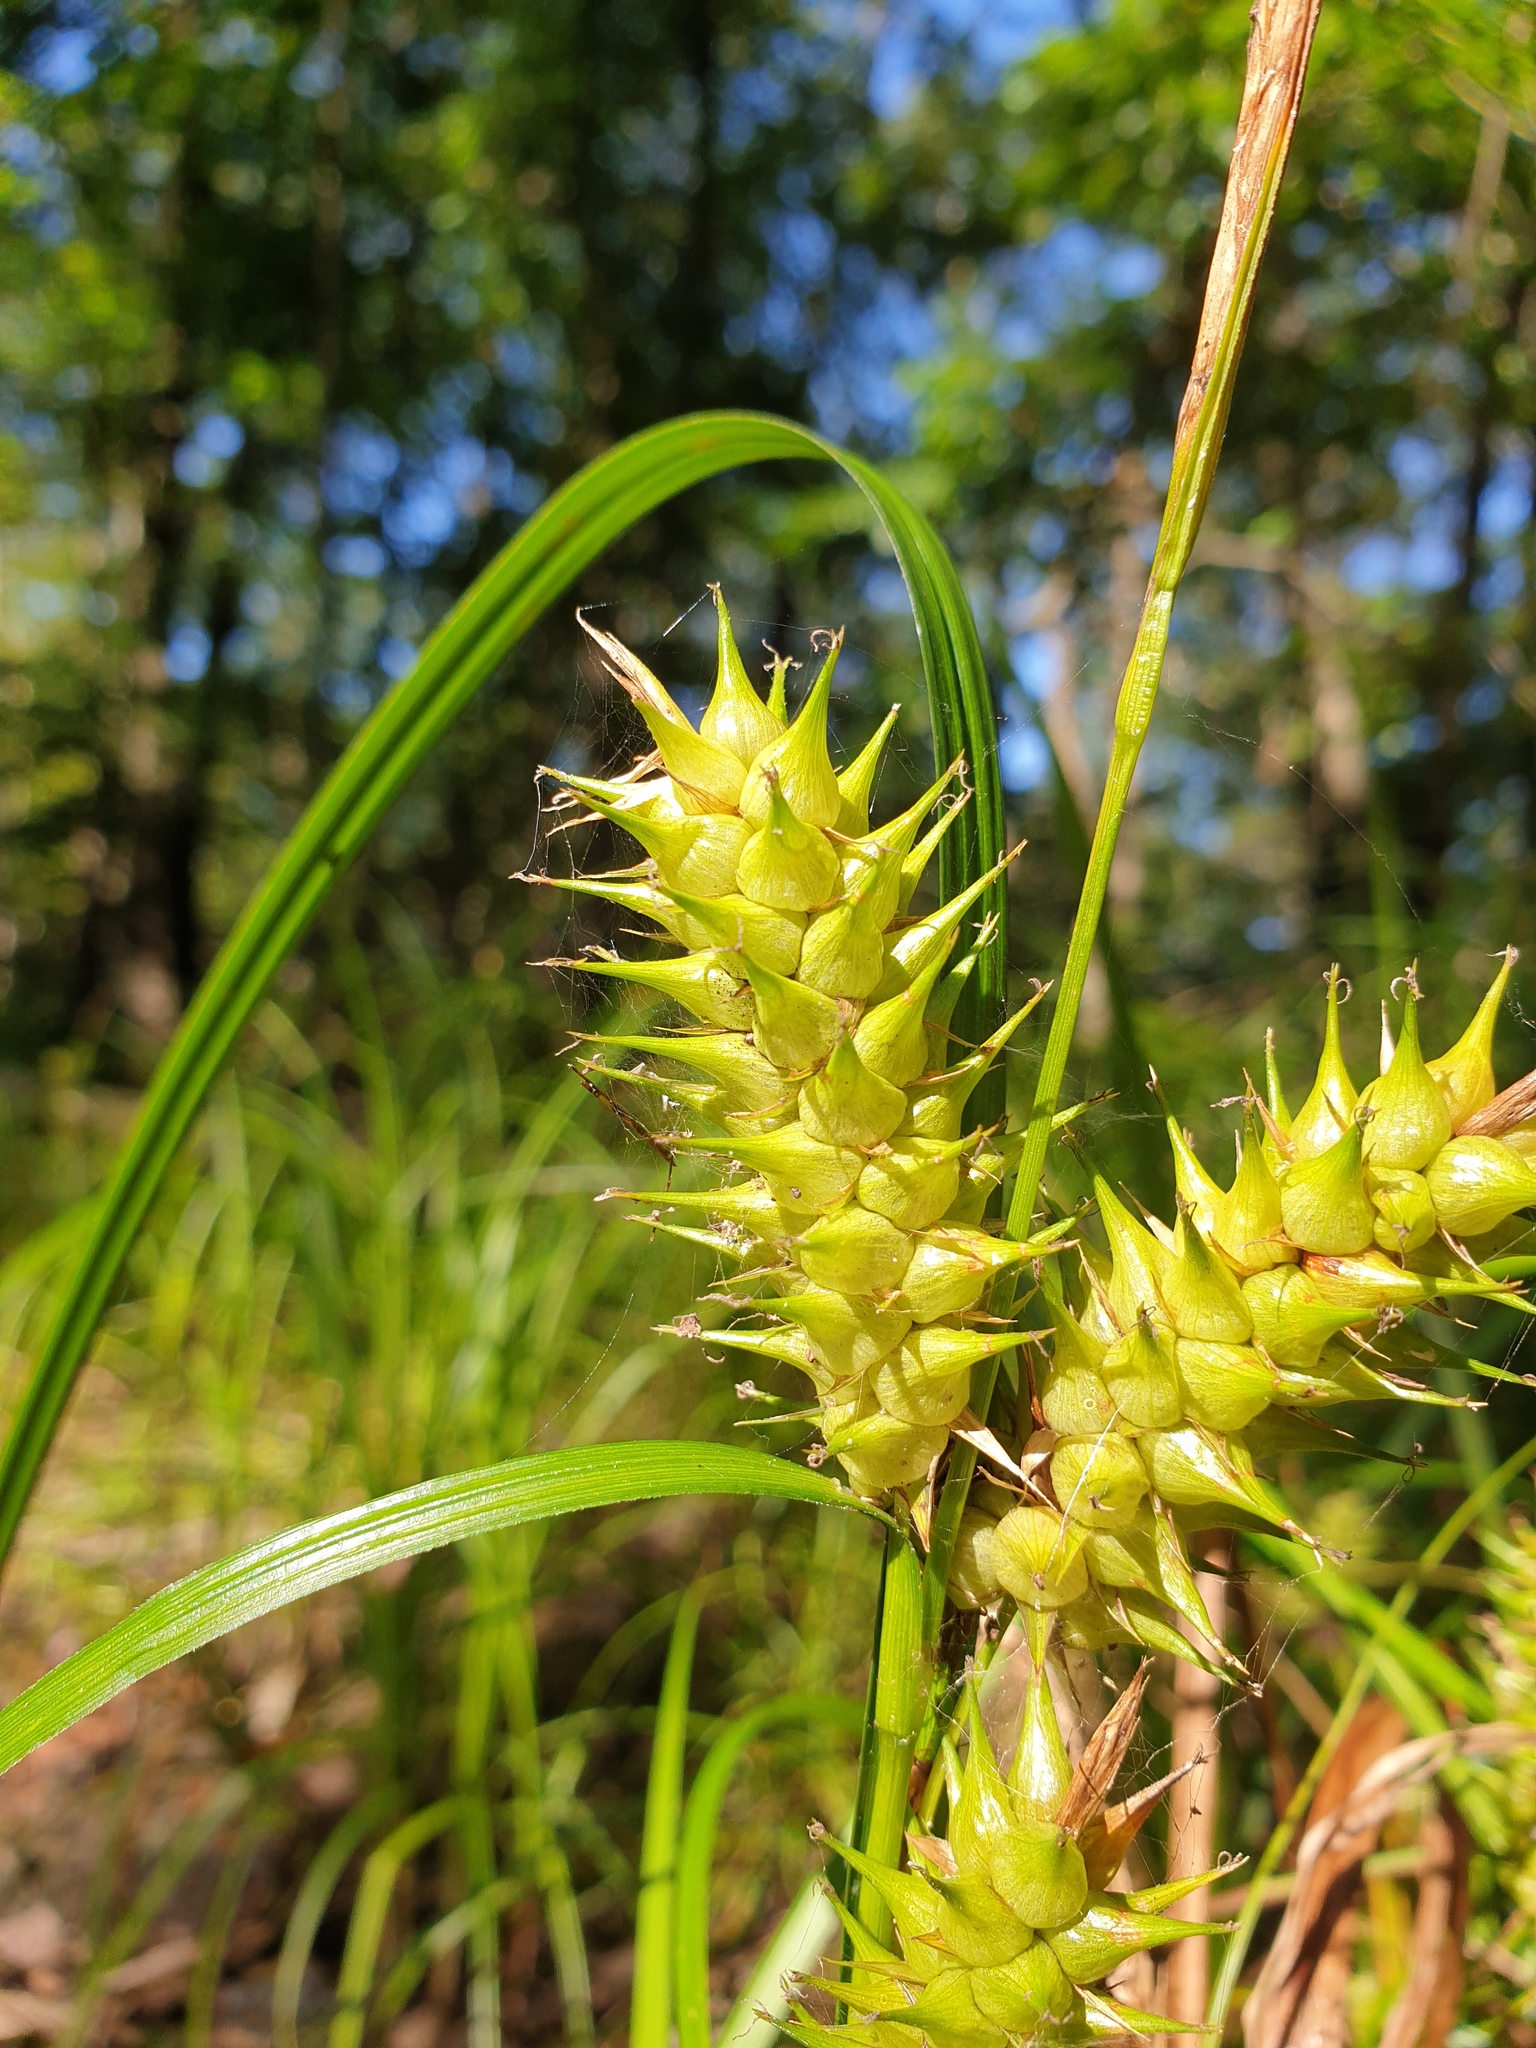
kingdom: Plantae
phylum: Tracheophyta
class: Liliopsida
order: Poales
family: Cyperaceae
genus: Carex
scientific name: Carex lupuliformis
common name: False hop sedge
